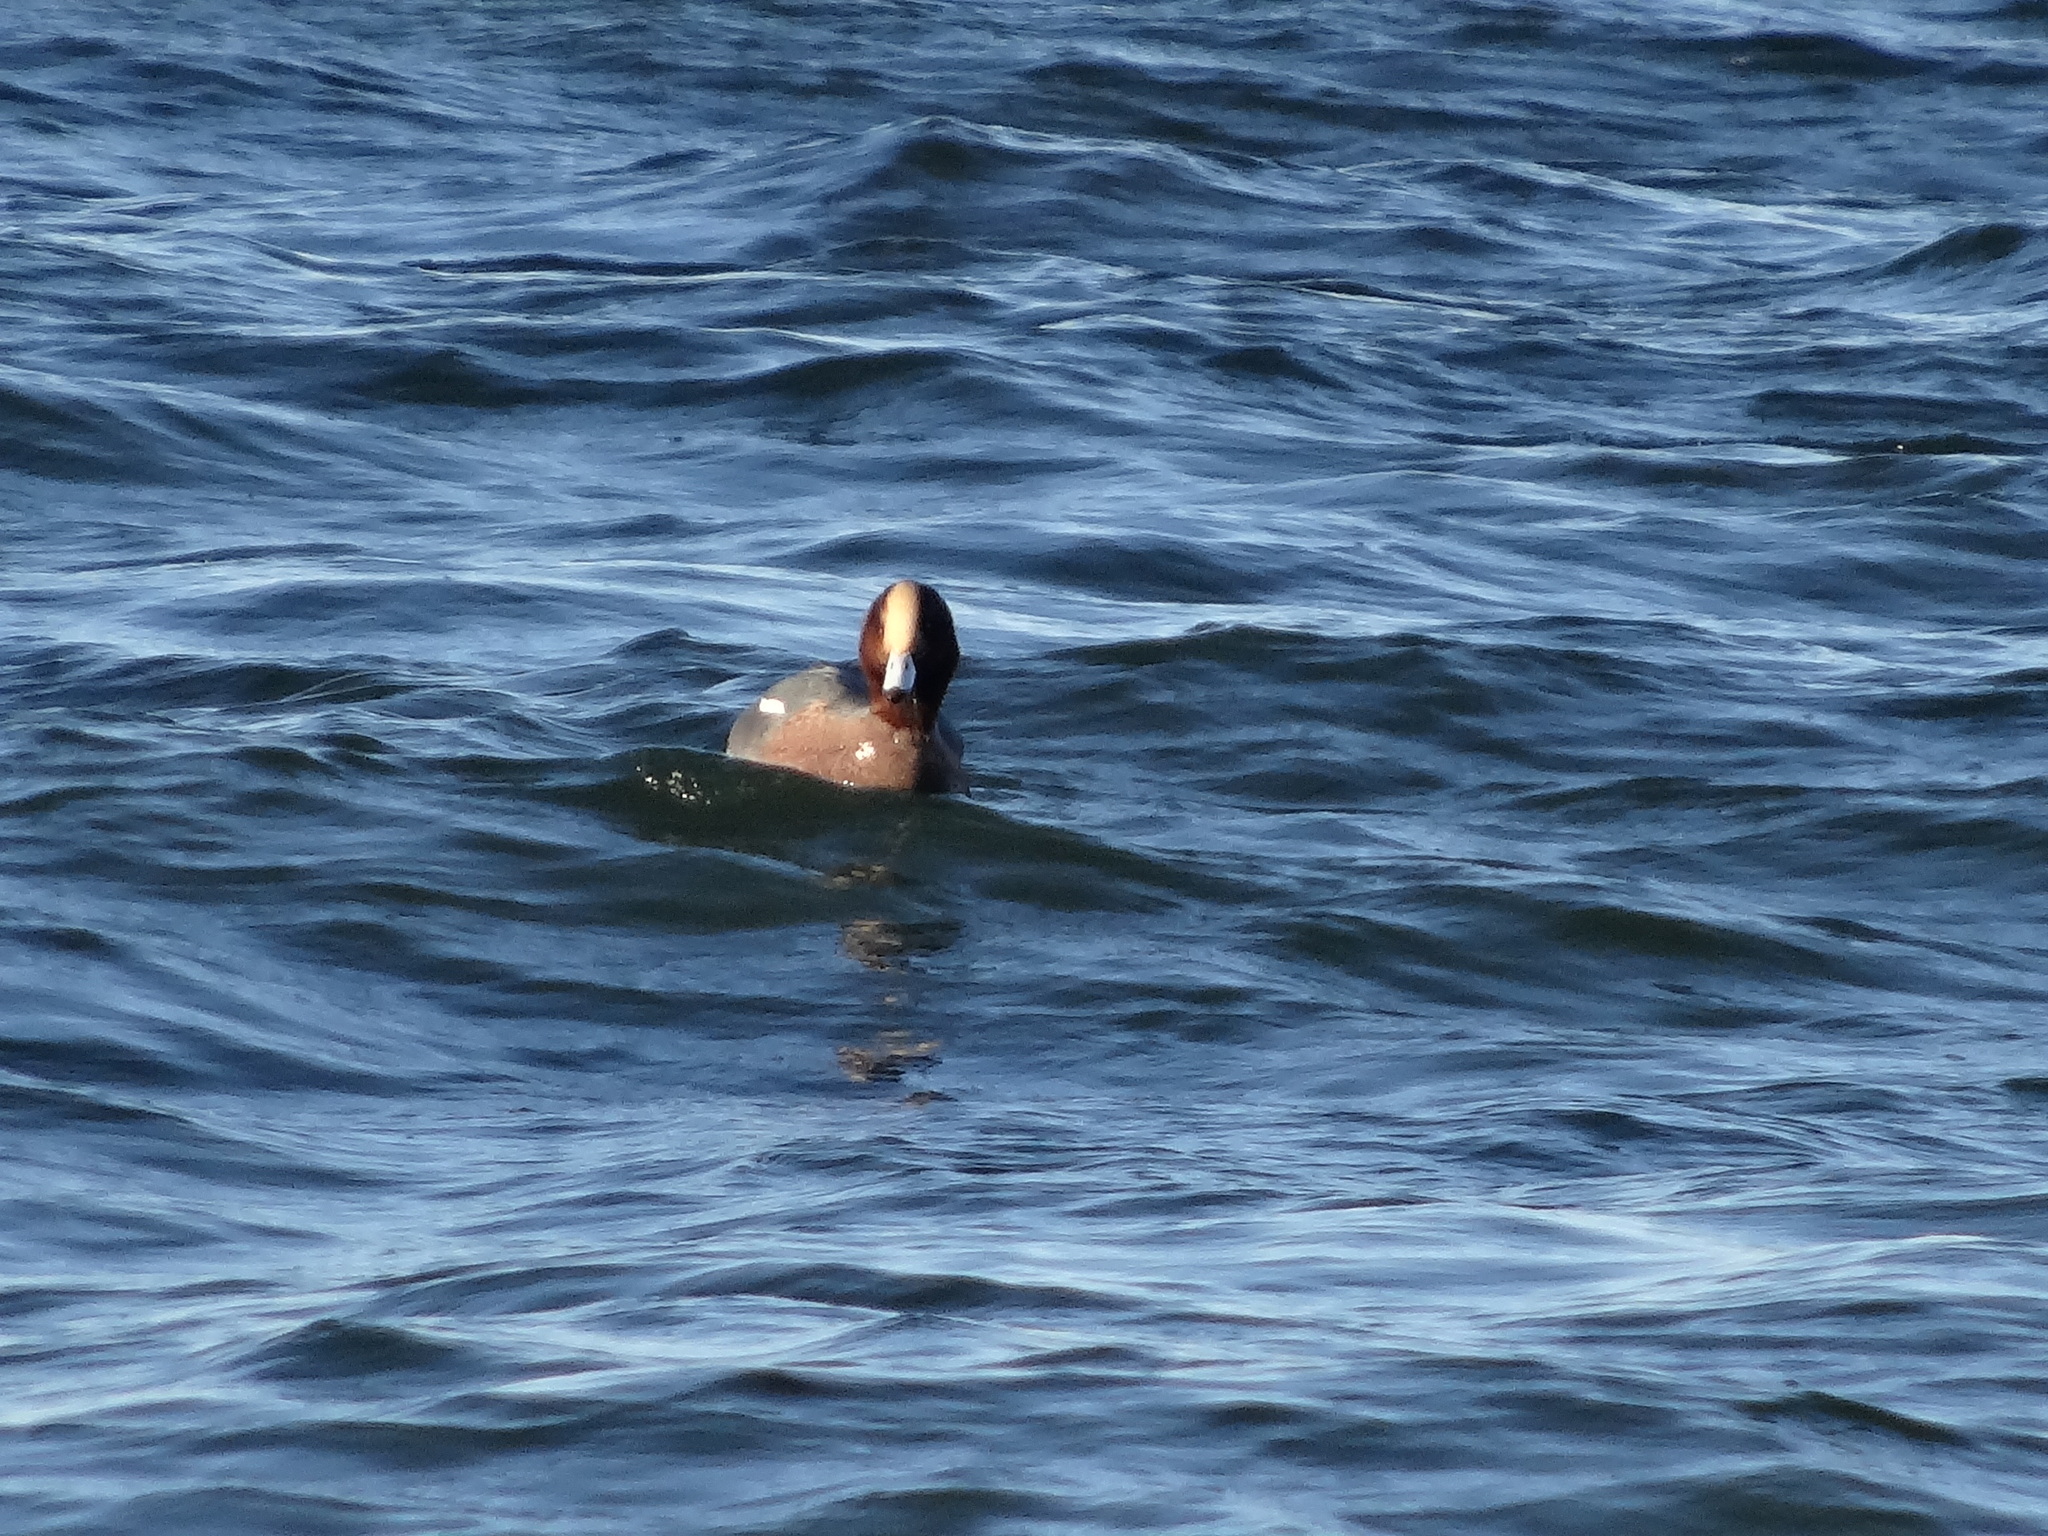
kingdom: Animalia
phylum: Chordata
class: Aves
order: Anseriformes
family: Anatidae
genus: Mareca
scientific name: Mareca penelope
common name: Eurasian wigeon
